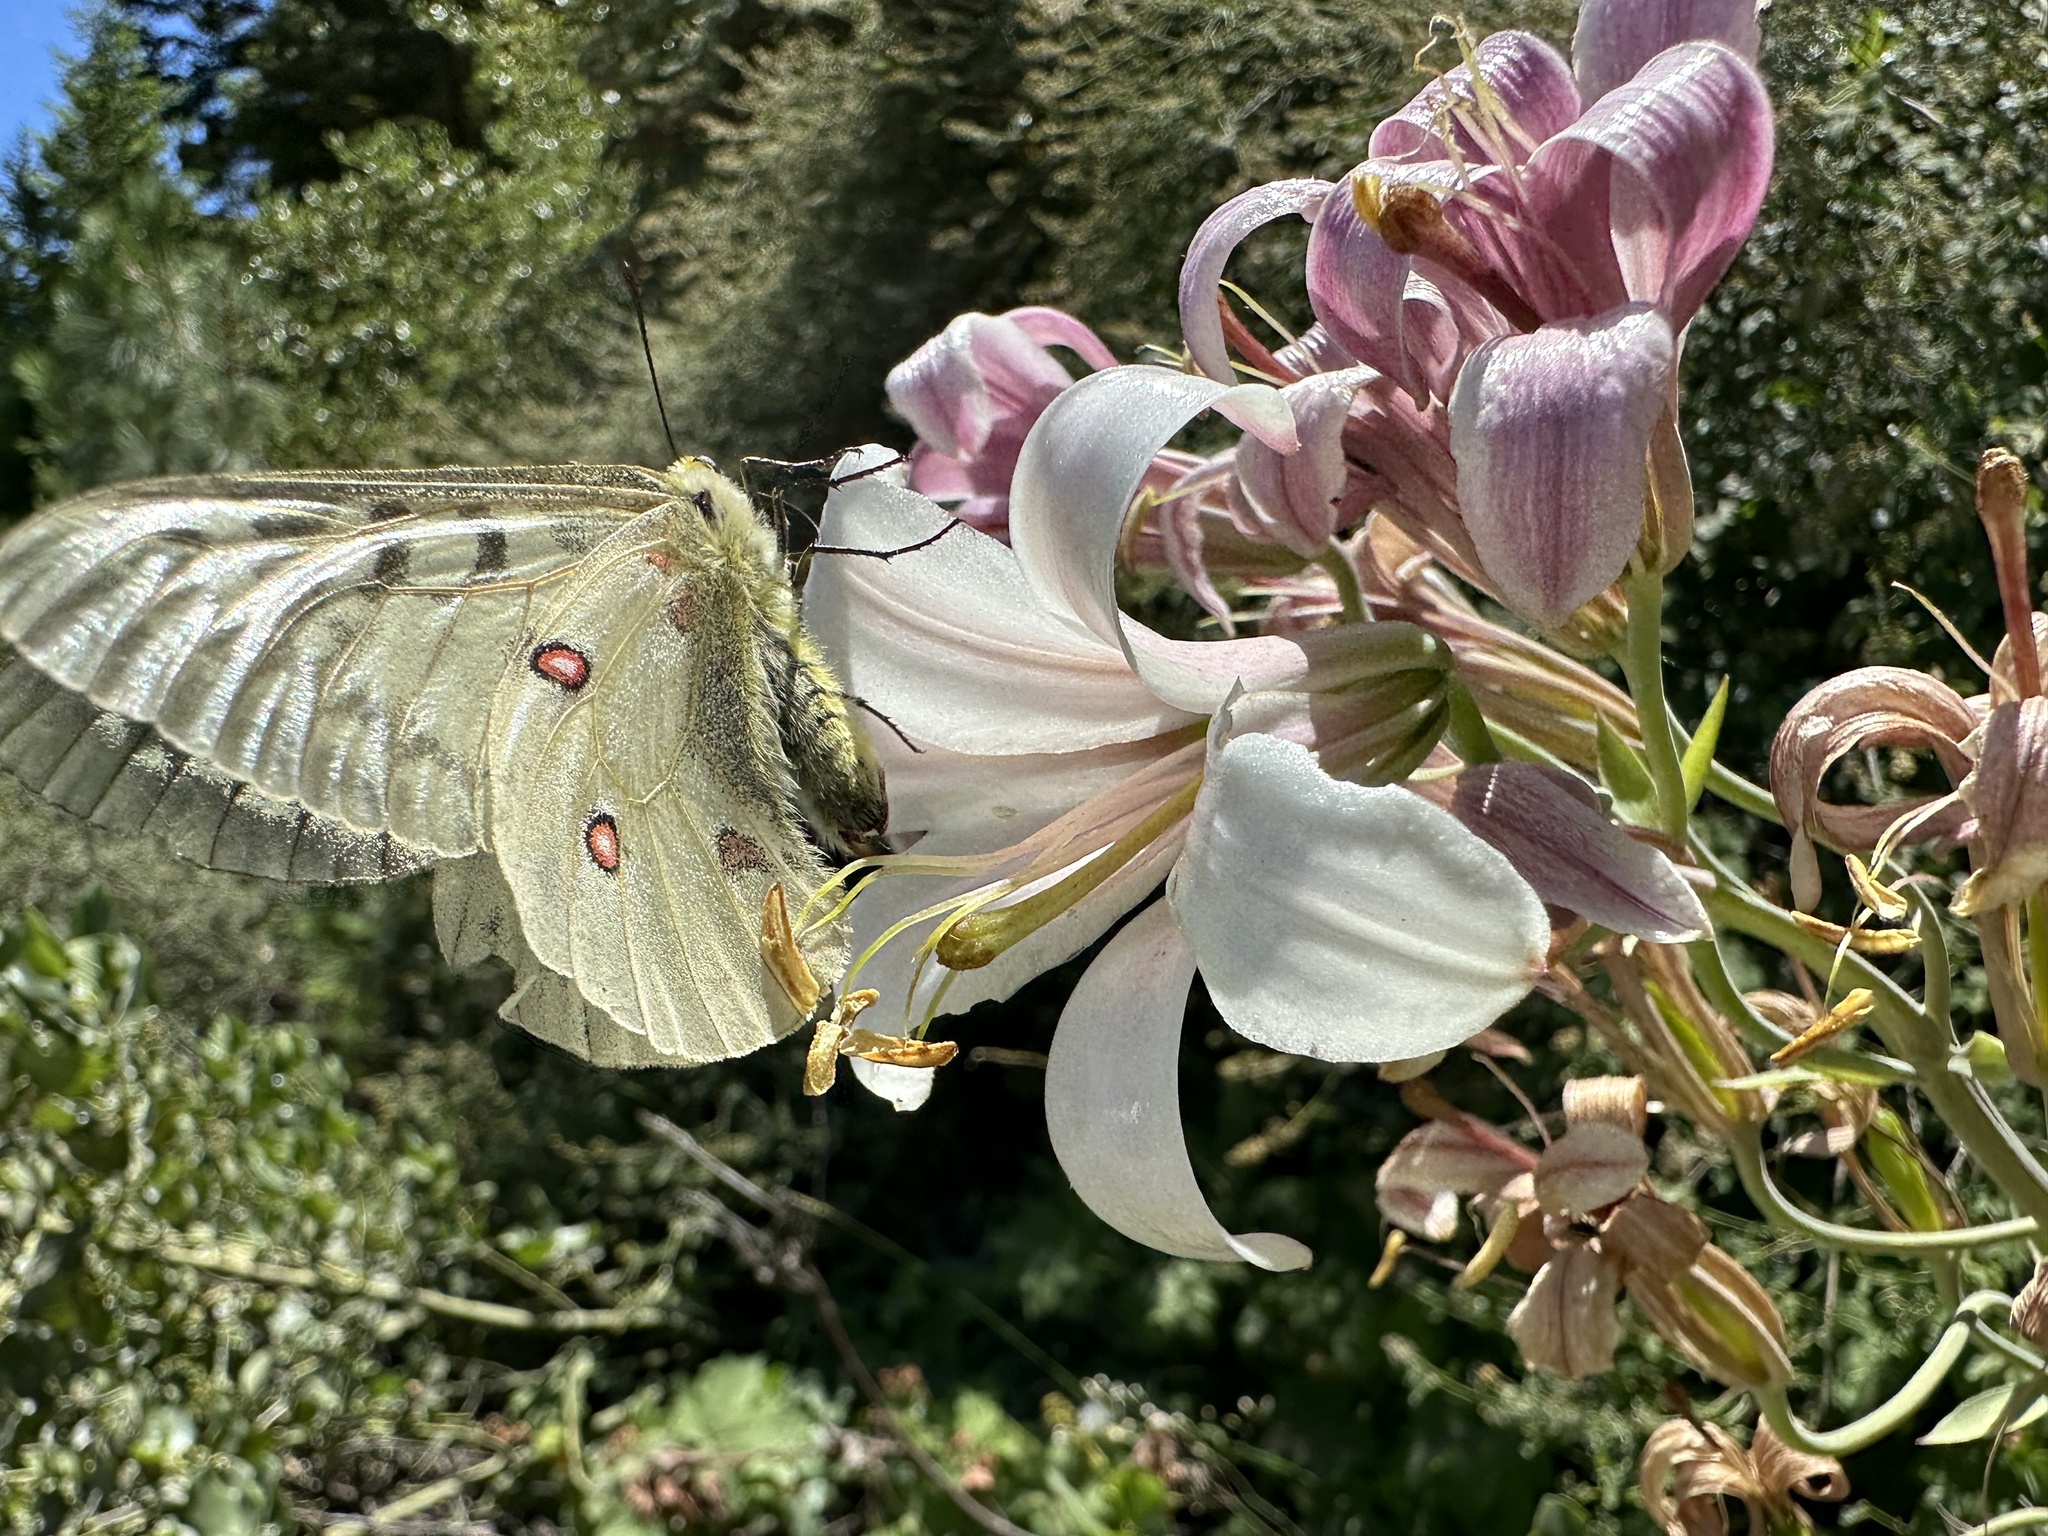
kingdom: Animalia
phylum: Arthropoda
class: Insecta
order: Lepidoptera
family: Papilionidae
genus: Parnassius
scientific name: Parnassius clodius
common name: American apollo
